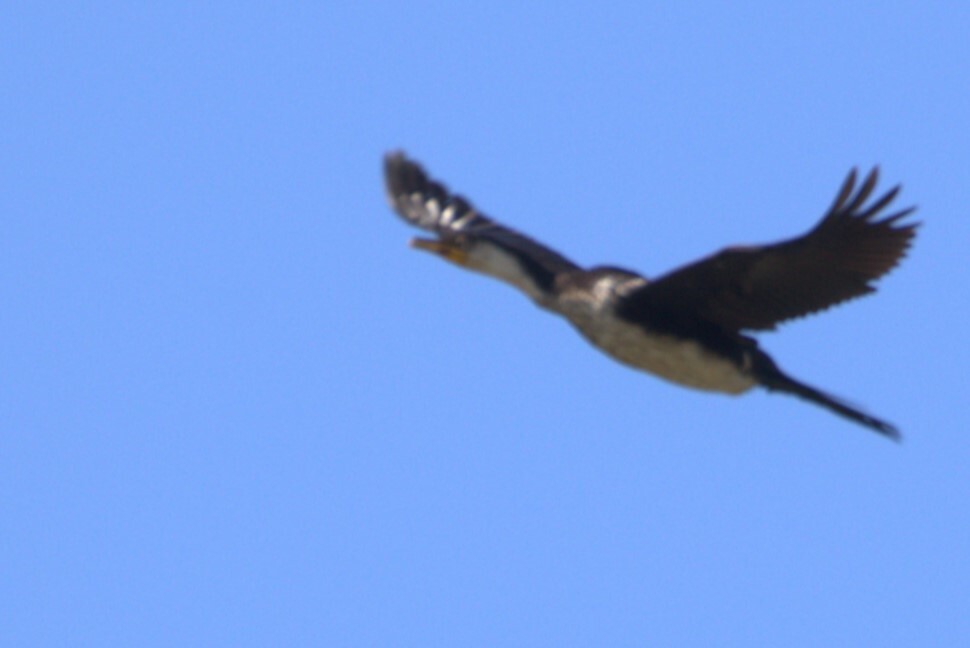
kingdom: Animalia
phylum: Chordata
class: Aves
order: Suliformes
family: Phalacrocoracidae
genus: Microcarbo
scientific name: Microcarbo melanoleucos
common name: Little pied cormorant
